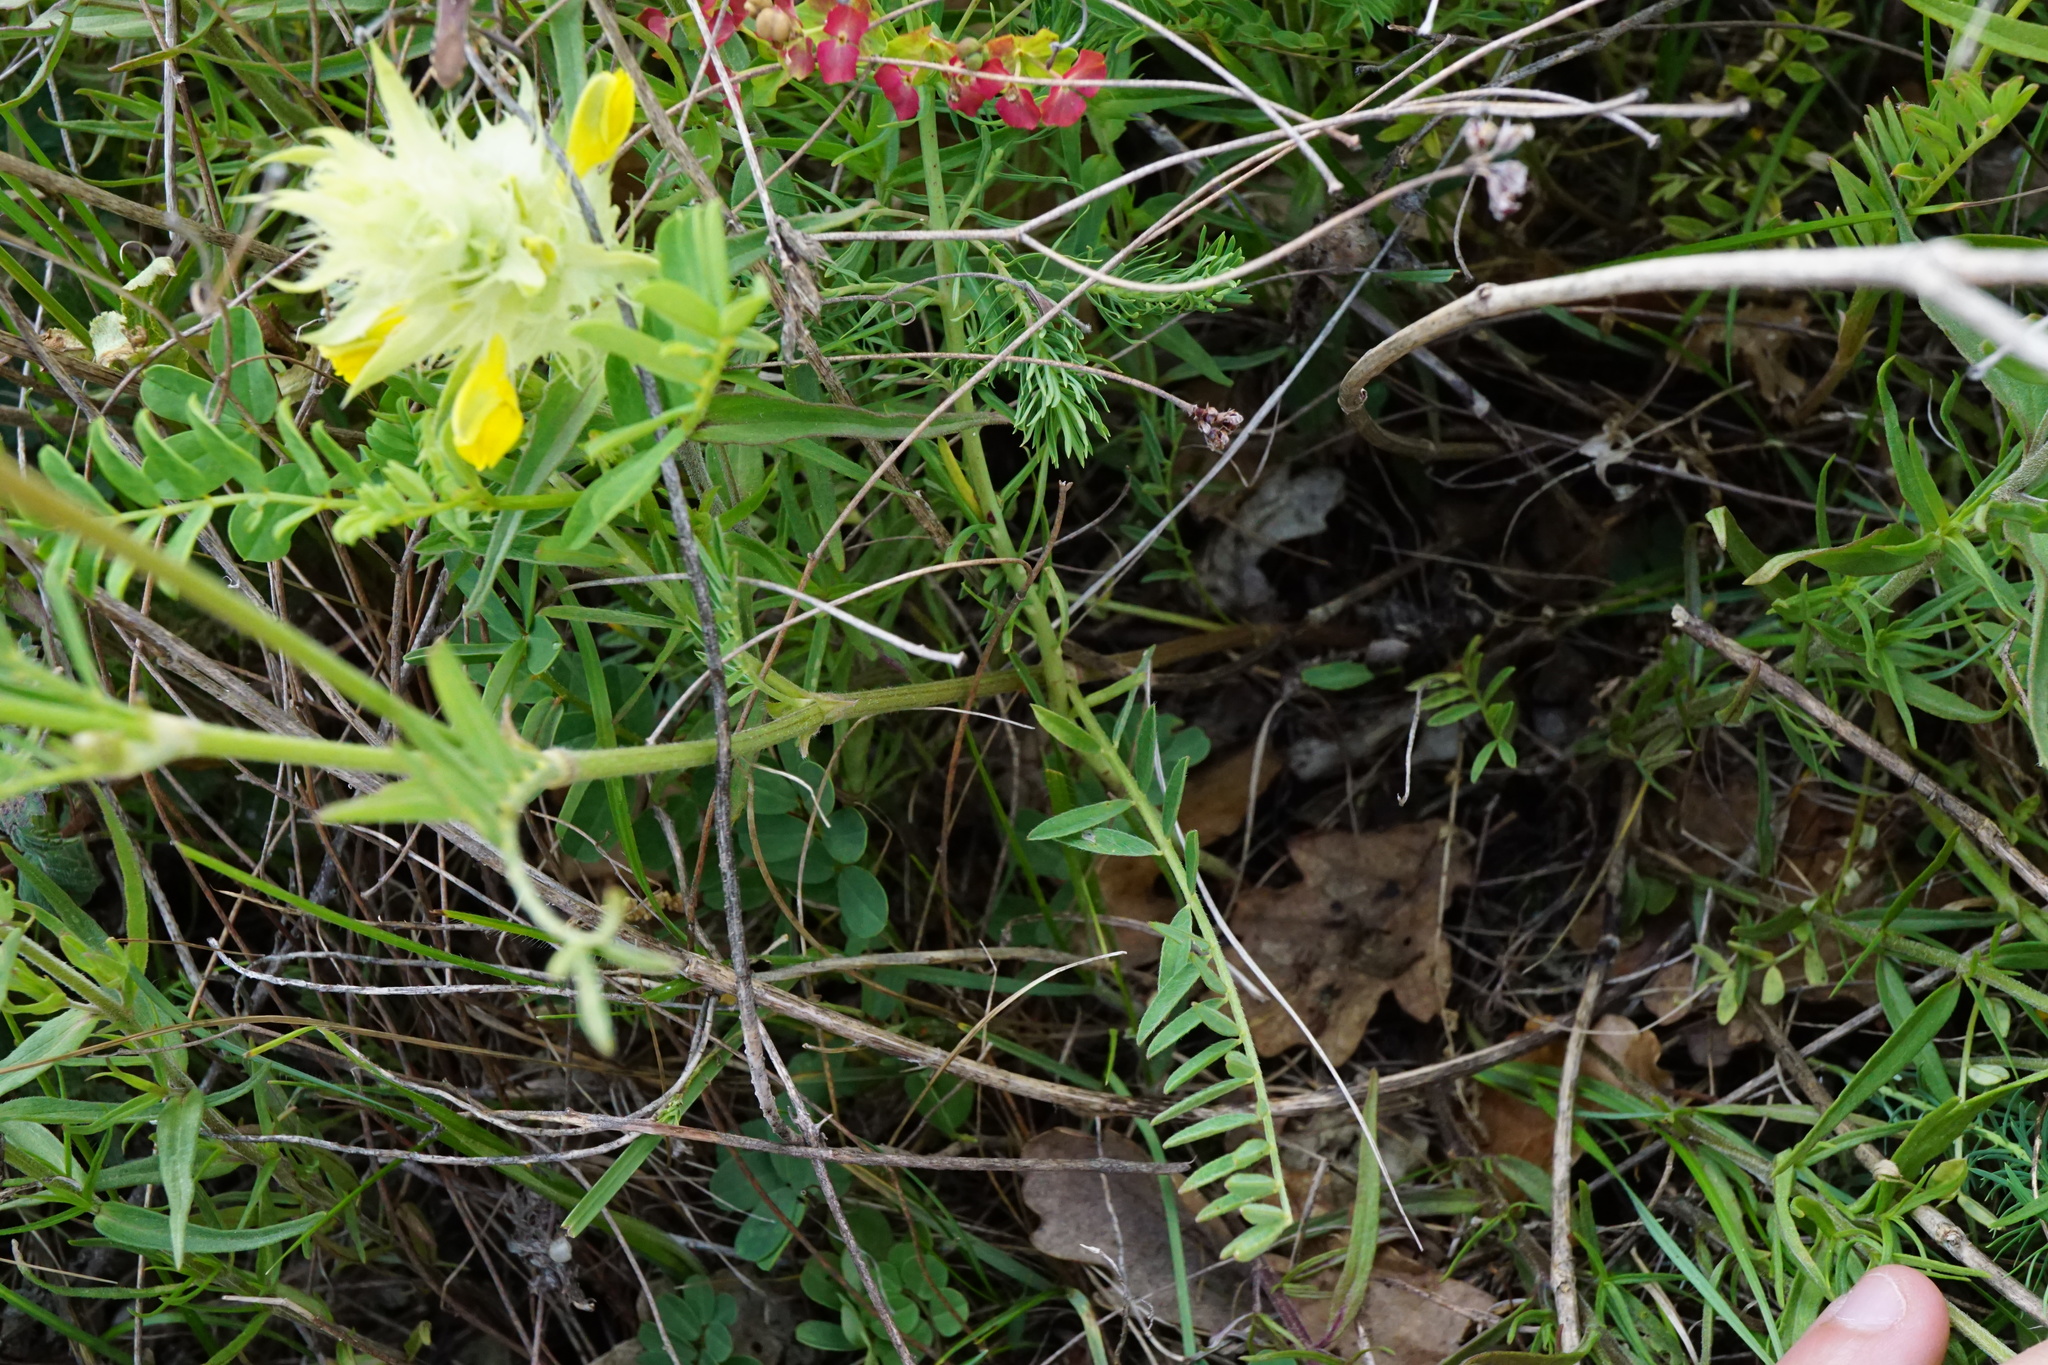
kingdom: Plantae
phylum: Tracheophyta
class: Magnoliopsida
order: Fabales
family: Fabaceae
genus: Astragalus
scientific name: Astragalus onobrychis
